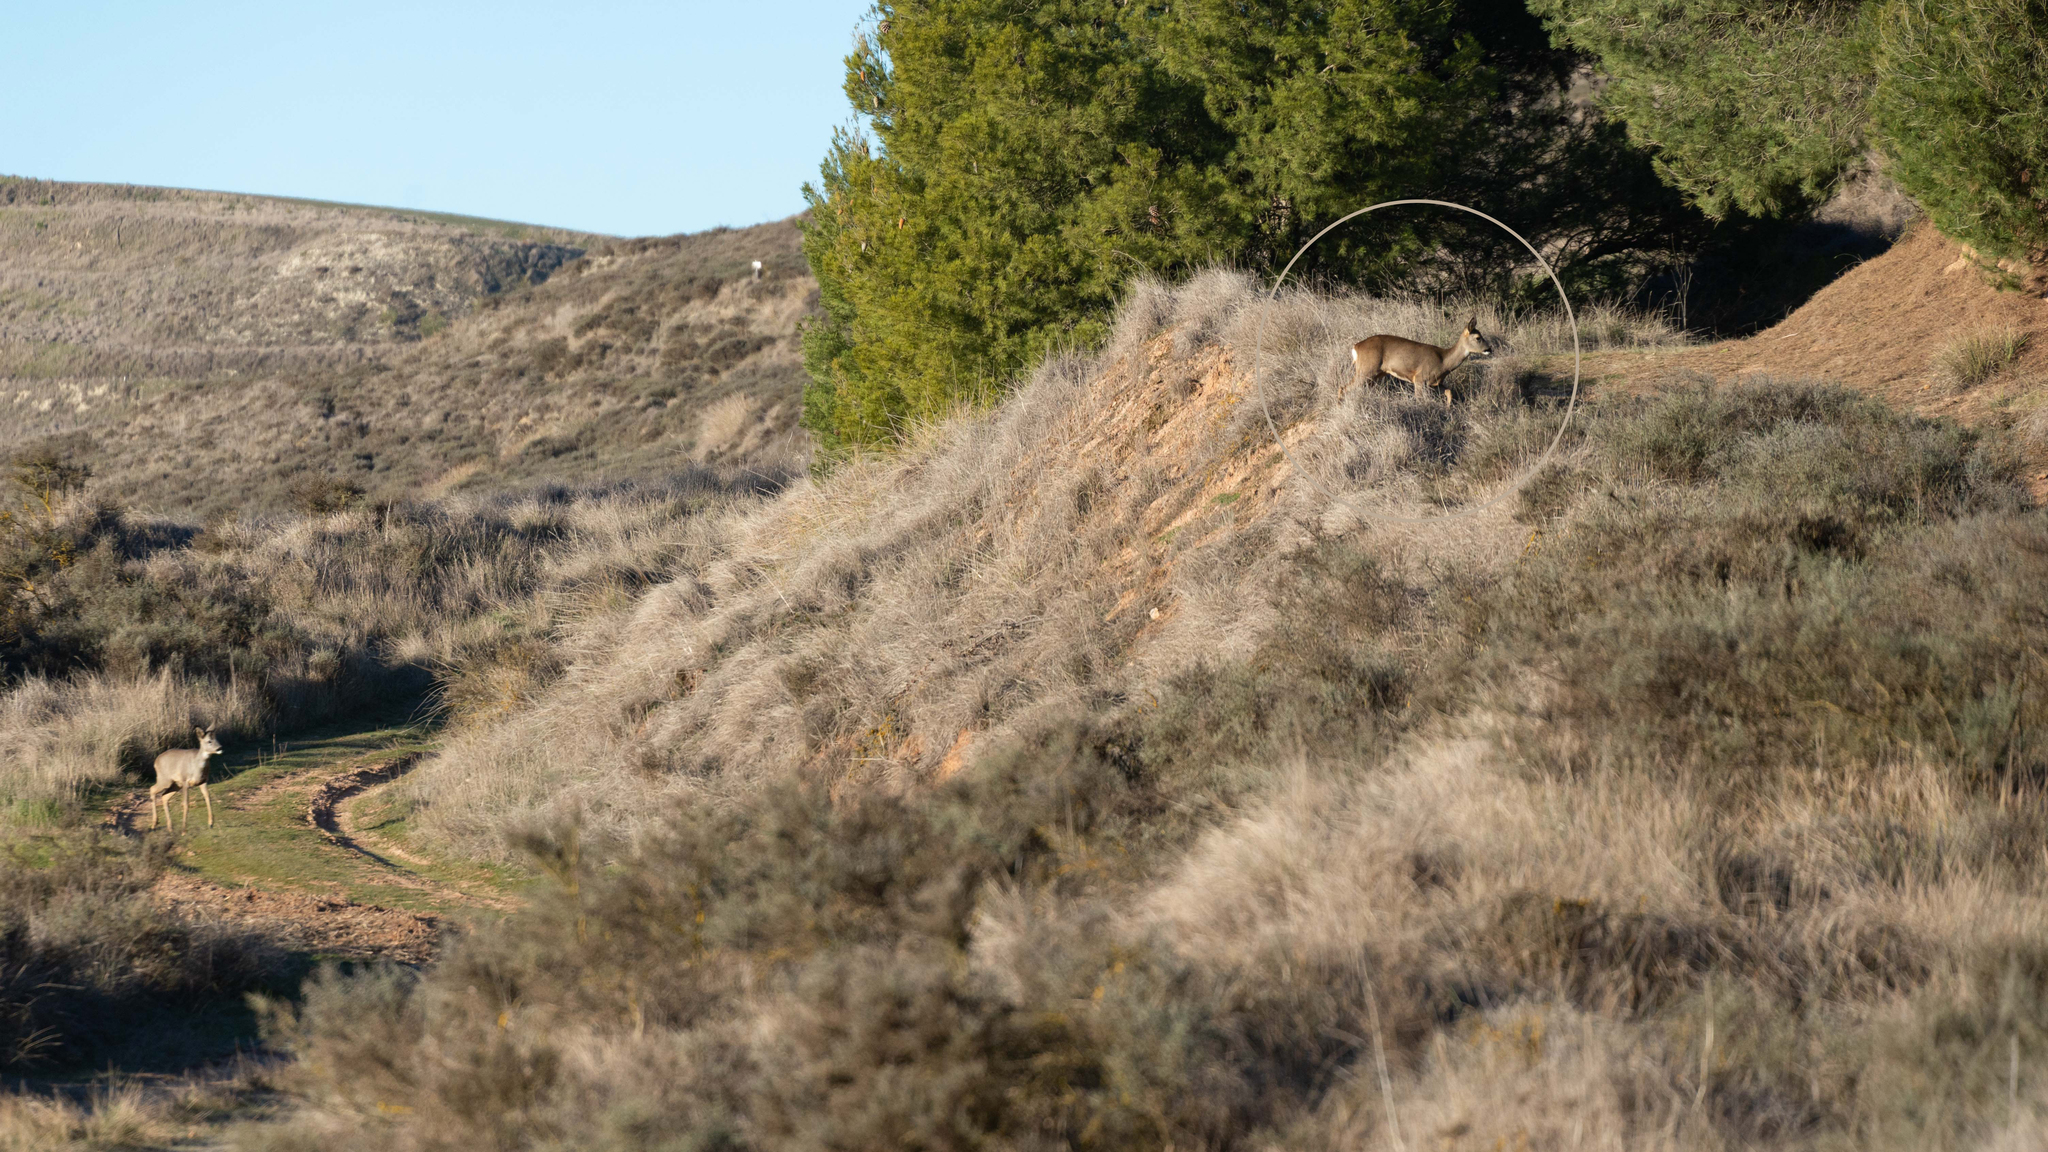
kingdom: Animalia
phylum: Chordata
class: Mammalia
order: Artiodactyla
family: Cervidae
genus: Capreolus
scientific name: Capreolus capreolus
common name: Western roe deer
